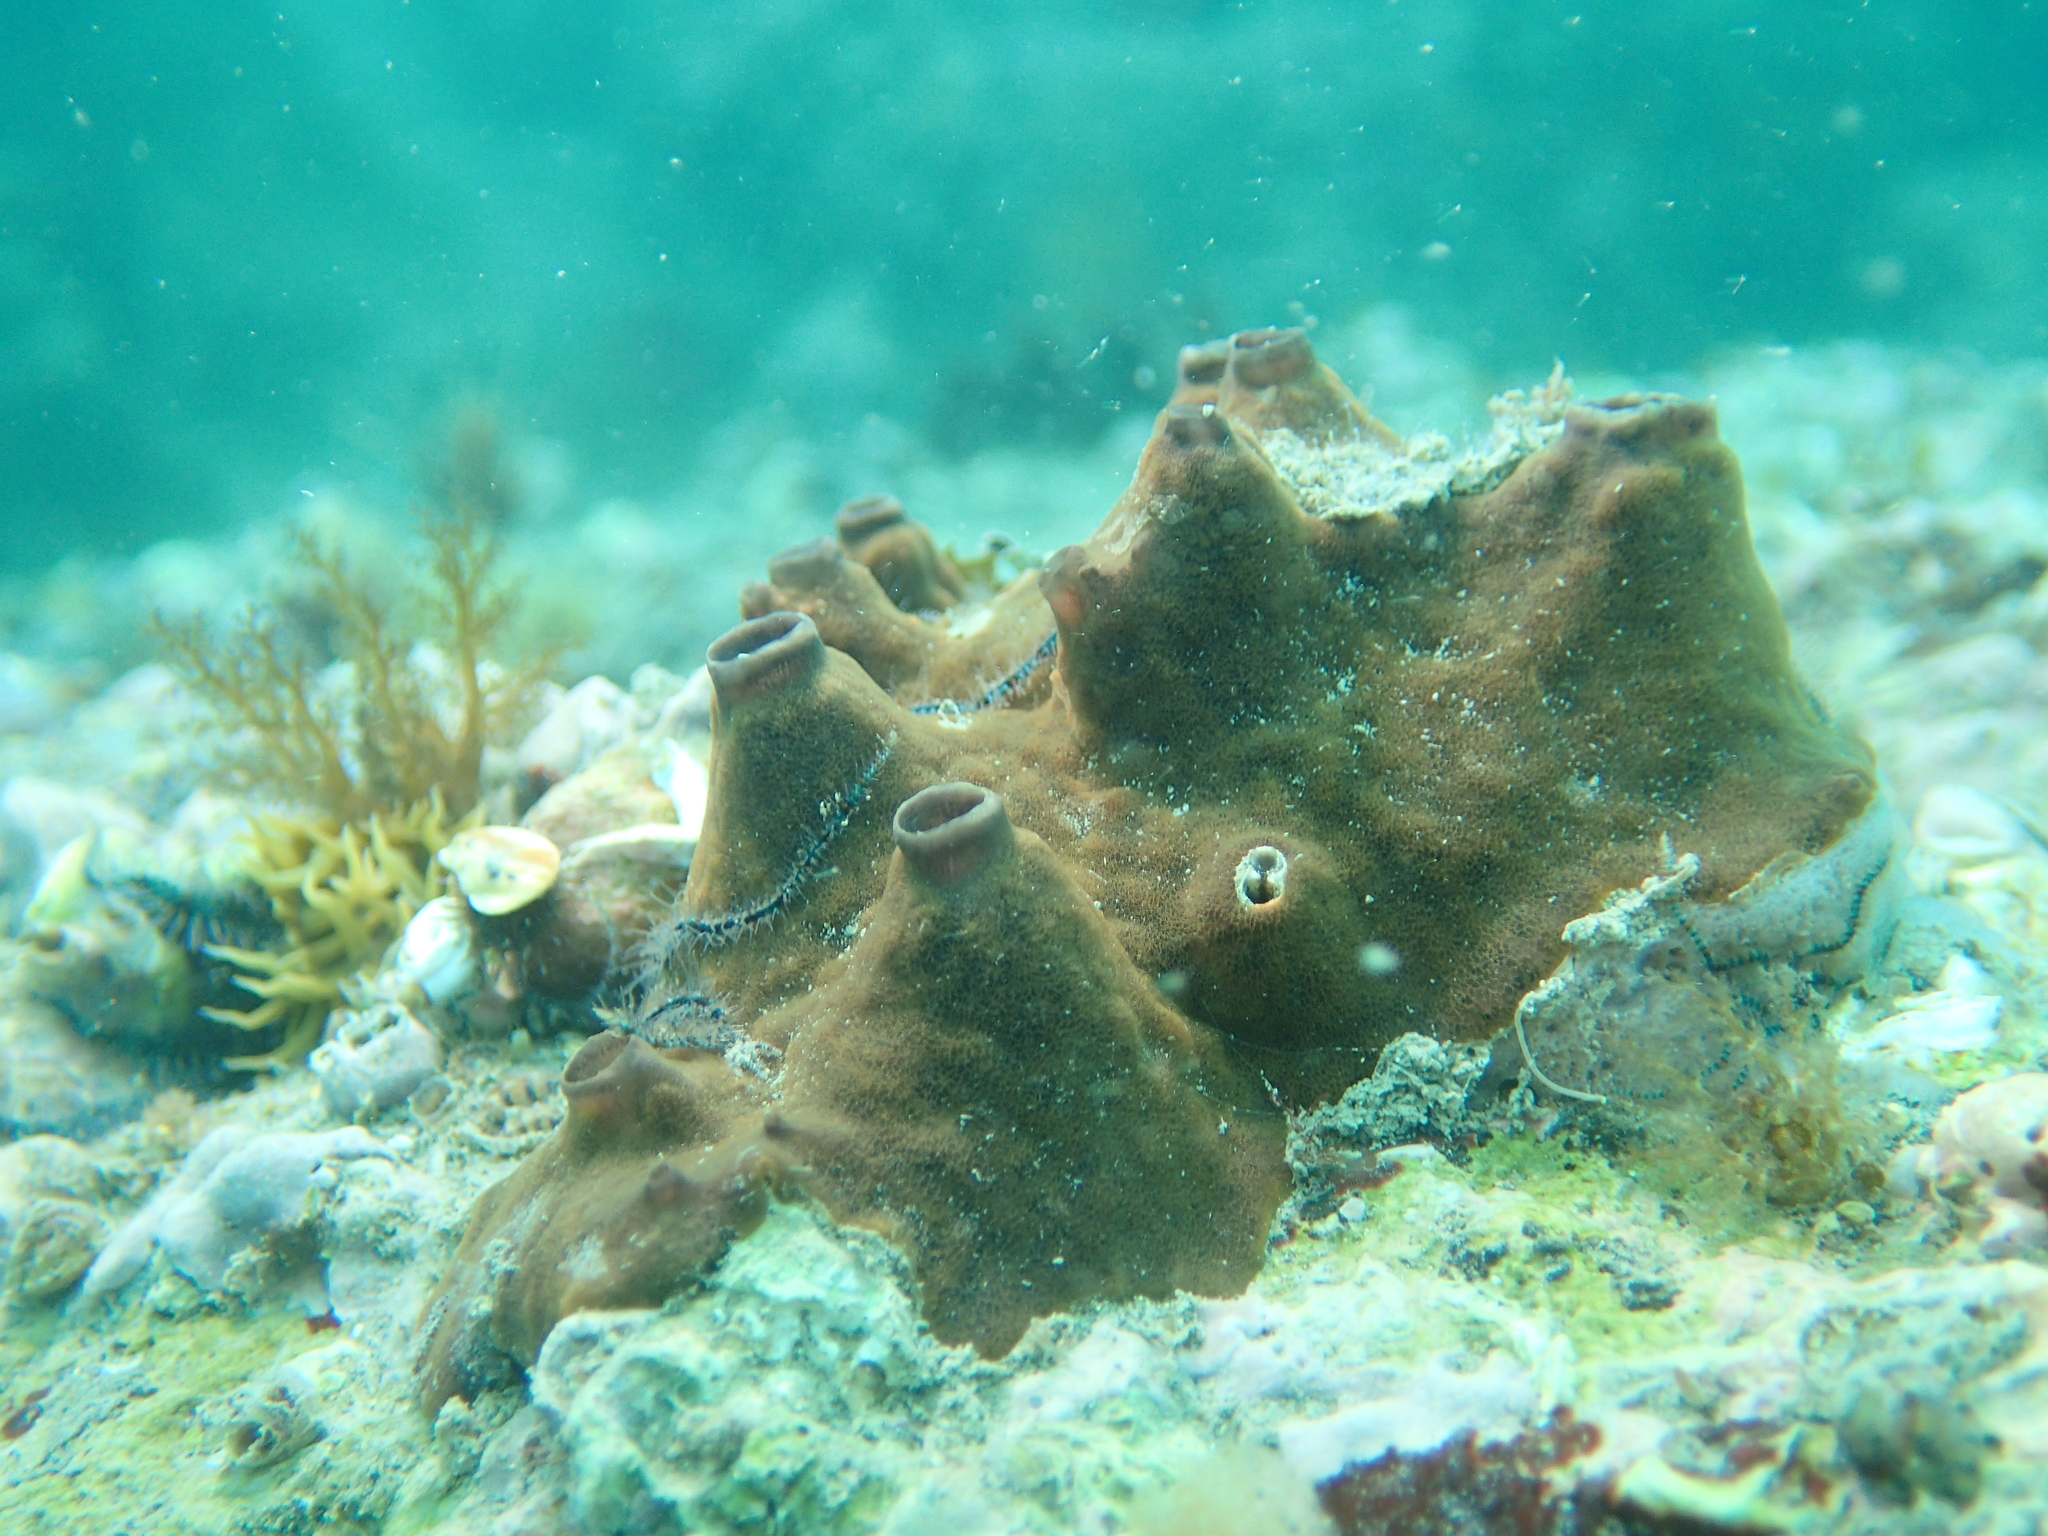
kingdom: Animalia
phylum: Porifera
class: Demospongiae
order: Poecilosclerida
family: Tedaniidae
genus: Tedania
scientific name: Tedania anhelans
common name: Fire sponge
